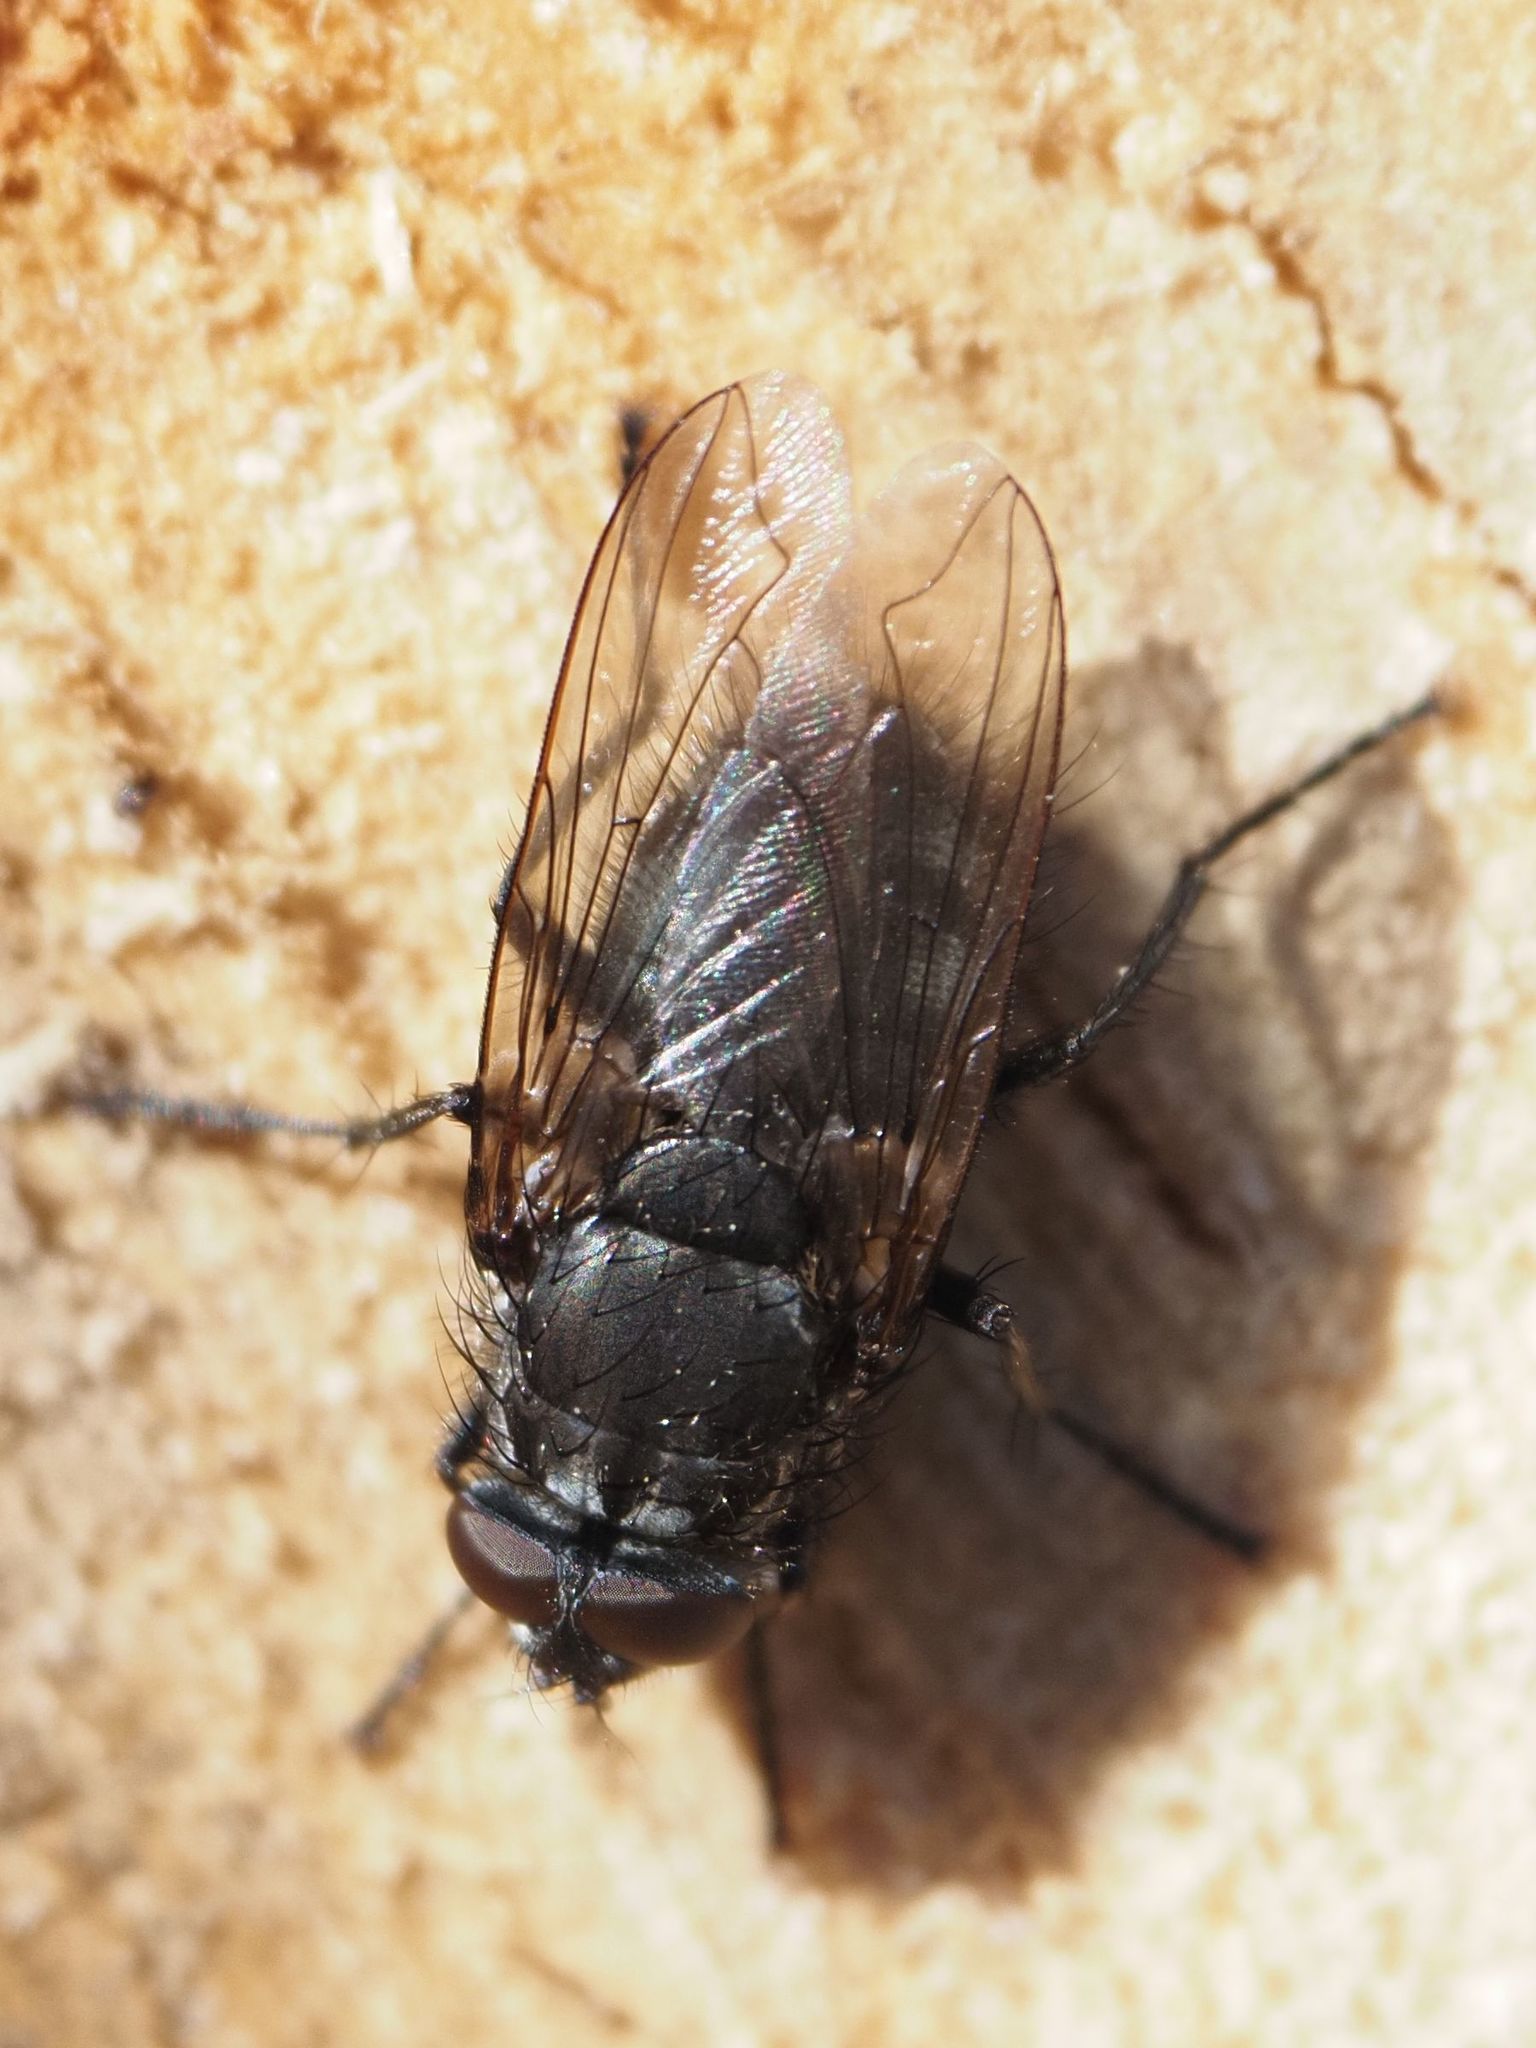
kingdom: Animalia
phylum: Arthropoda
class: Insecta
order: Diptera
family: Polleniidae
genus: Pollenia
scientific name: Pollenia vagabunda
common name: Vagabund cluster fly
